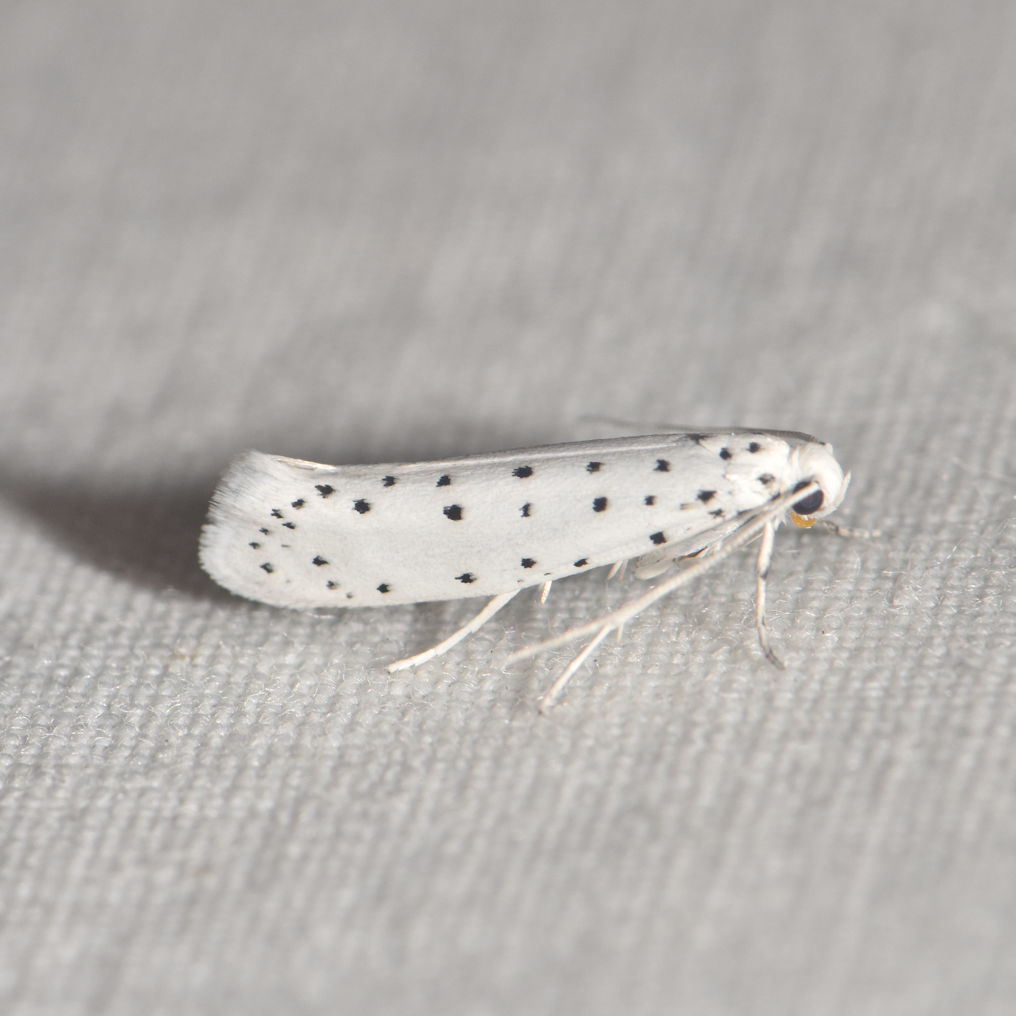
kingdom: Animalia
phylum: Arthropoda
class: Insecta
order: Lepidoptera
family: Yponomeutidae
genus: Yponomeuta
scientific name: Yponomeuta cagnagellus
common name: Spindle ermine
